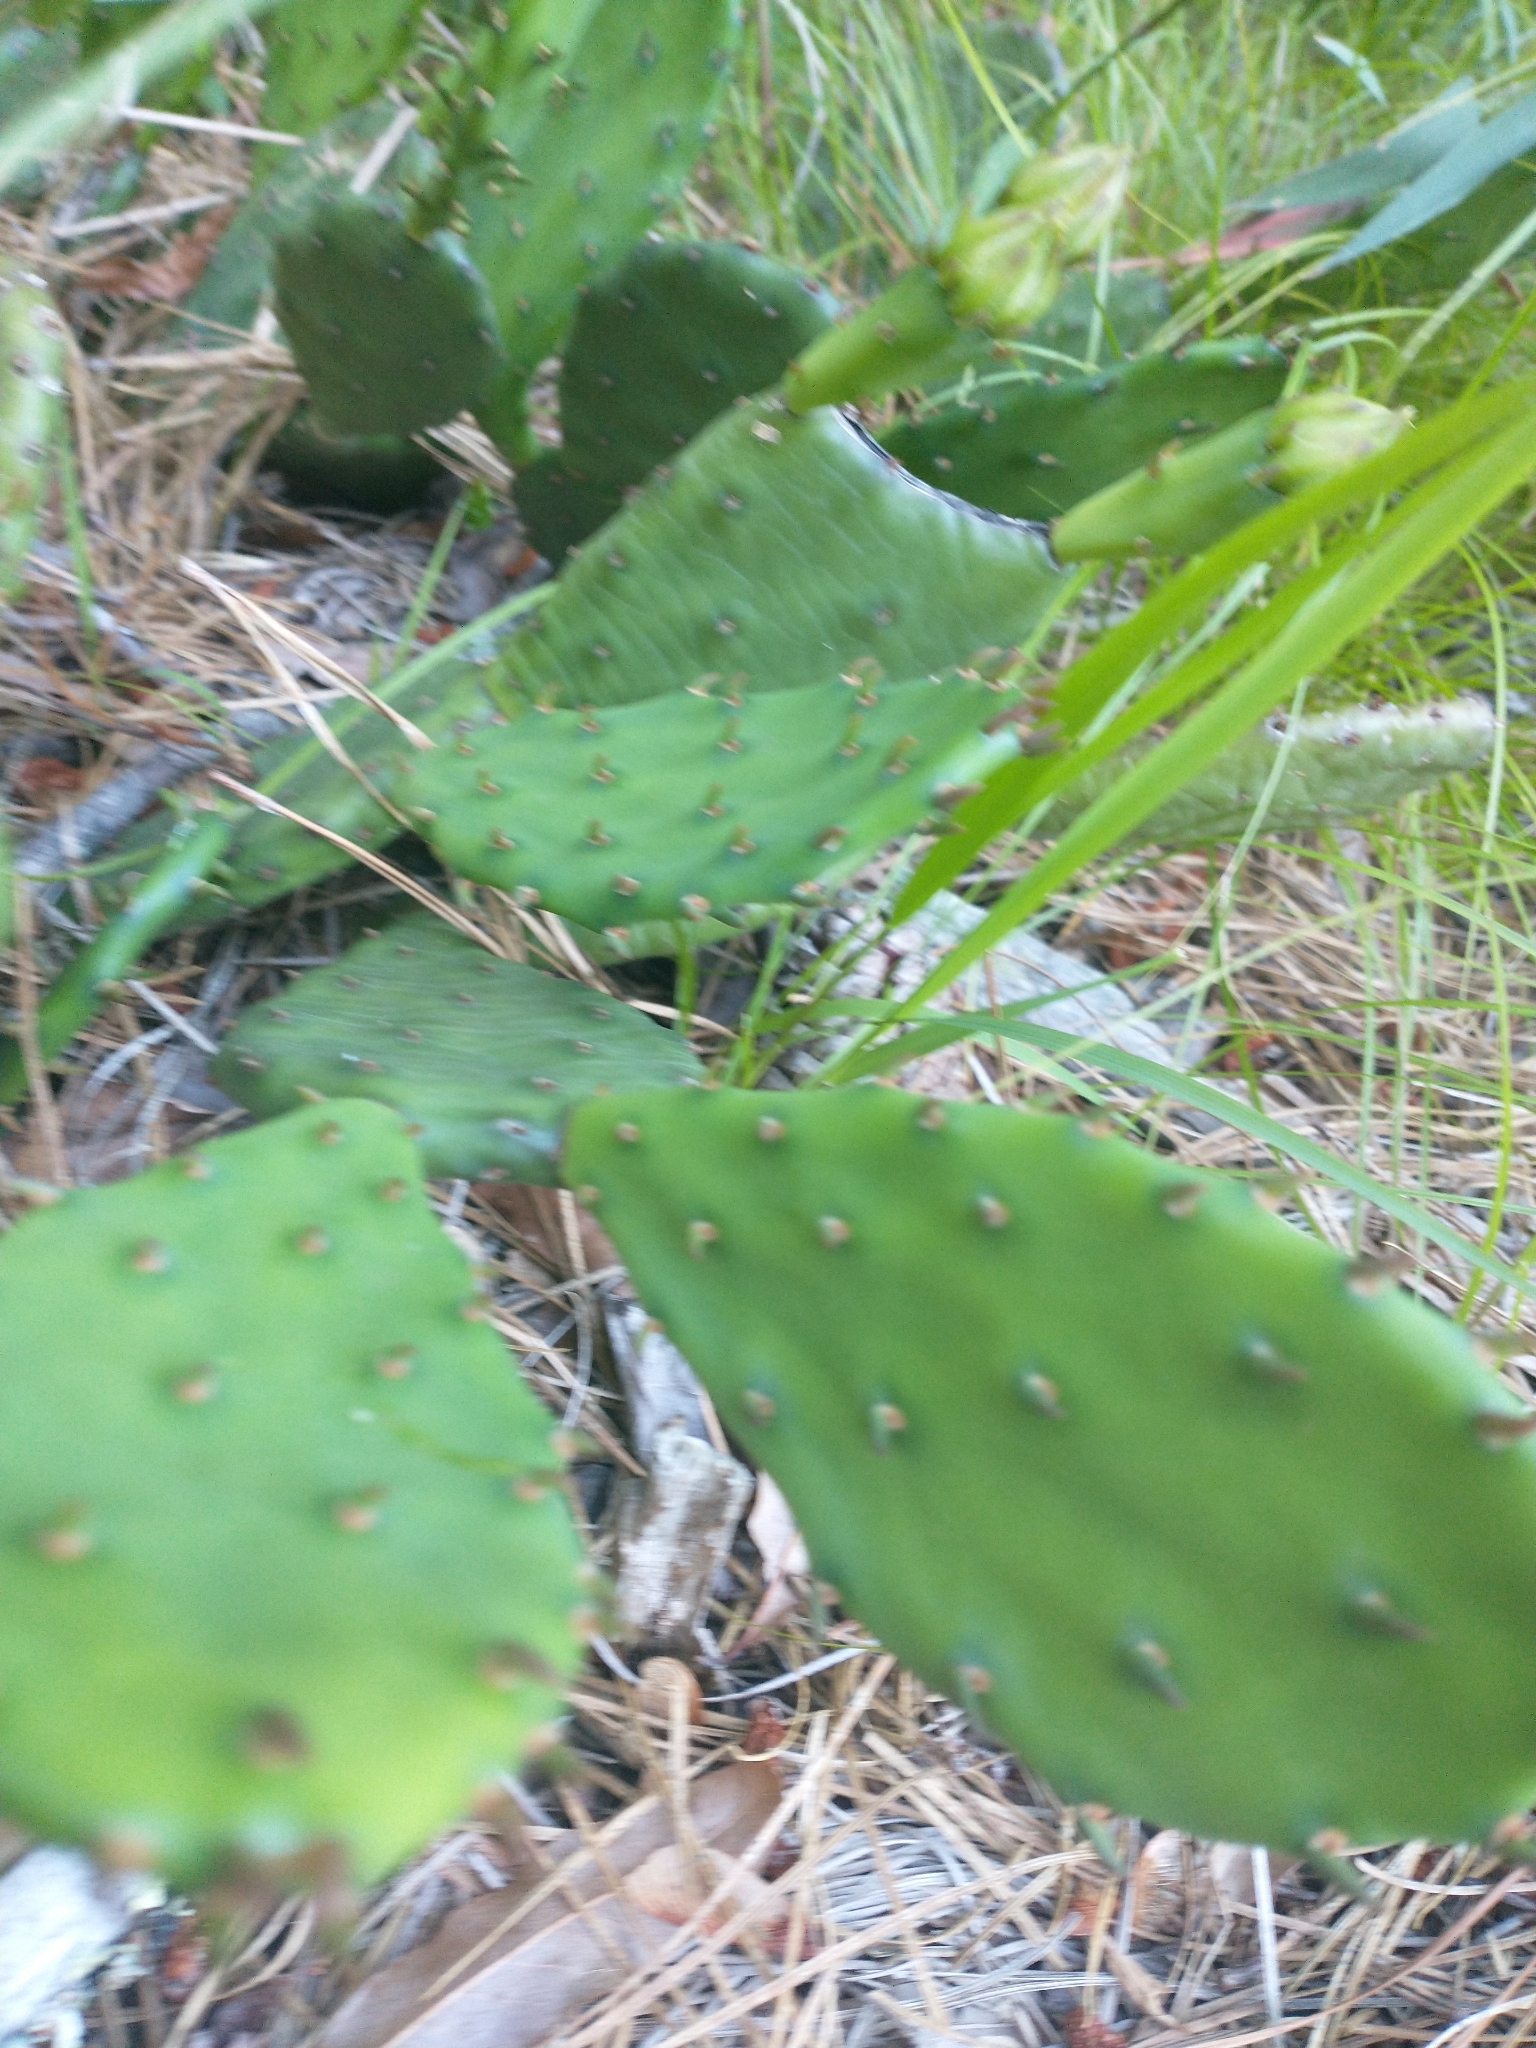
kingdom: Plantae
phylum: Tracheophyta
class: Magnoliopsida
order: Caryophyllales
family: Cactaceae
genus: Opuntia
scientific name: Opuntia humifusa
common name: Eastern prickly-pear
